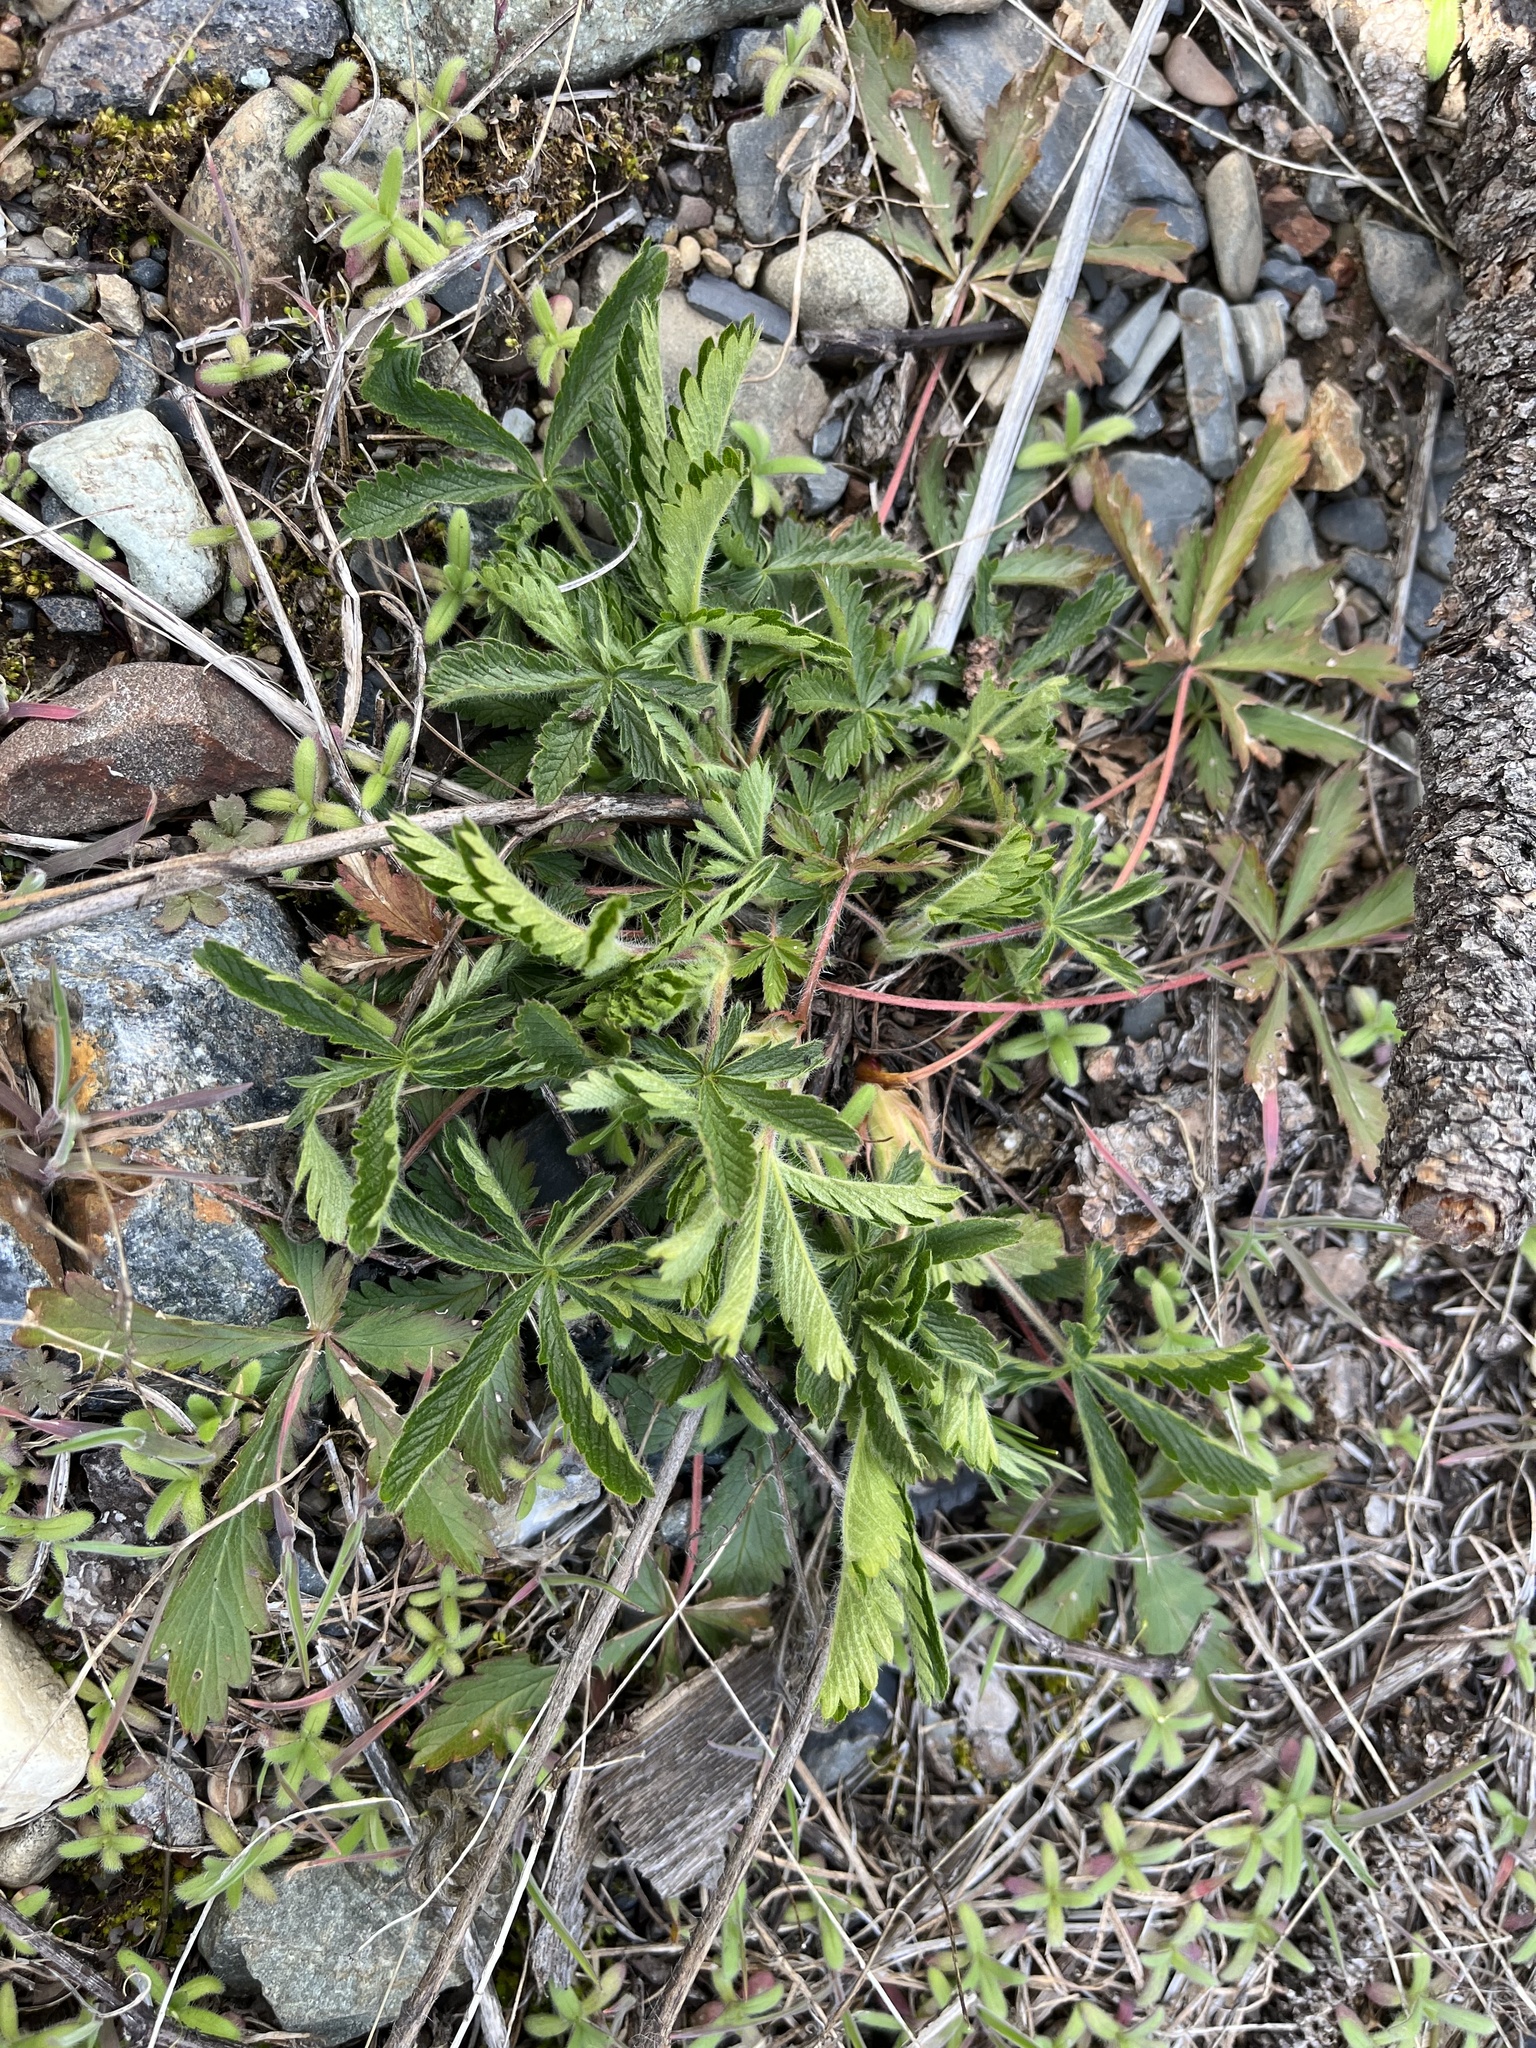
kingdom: Plantae
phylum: Tracheophyta
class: Magnoliopsida
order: Rosales
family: Rosaceae
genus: Potentilla
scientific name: Potentilla recta
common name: Sulphur cinquefoil
